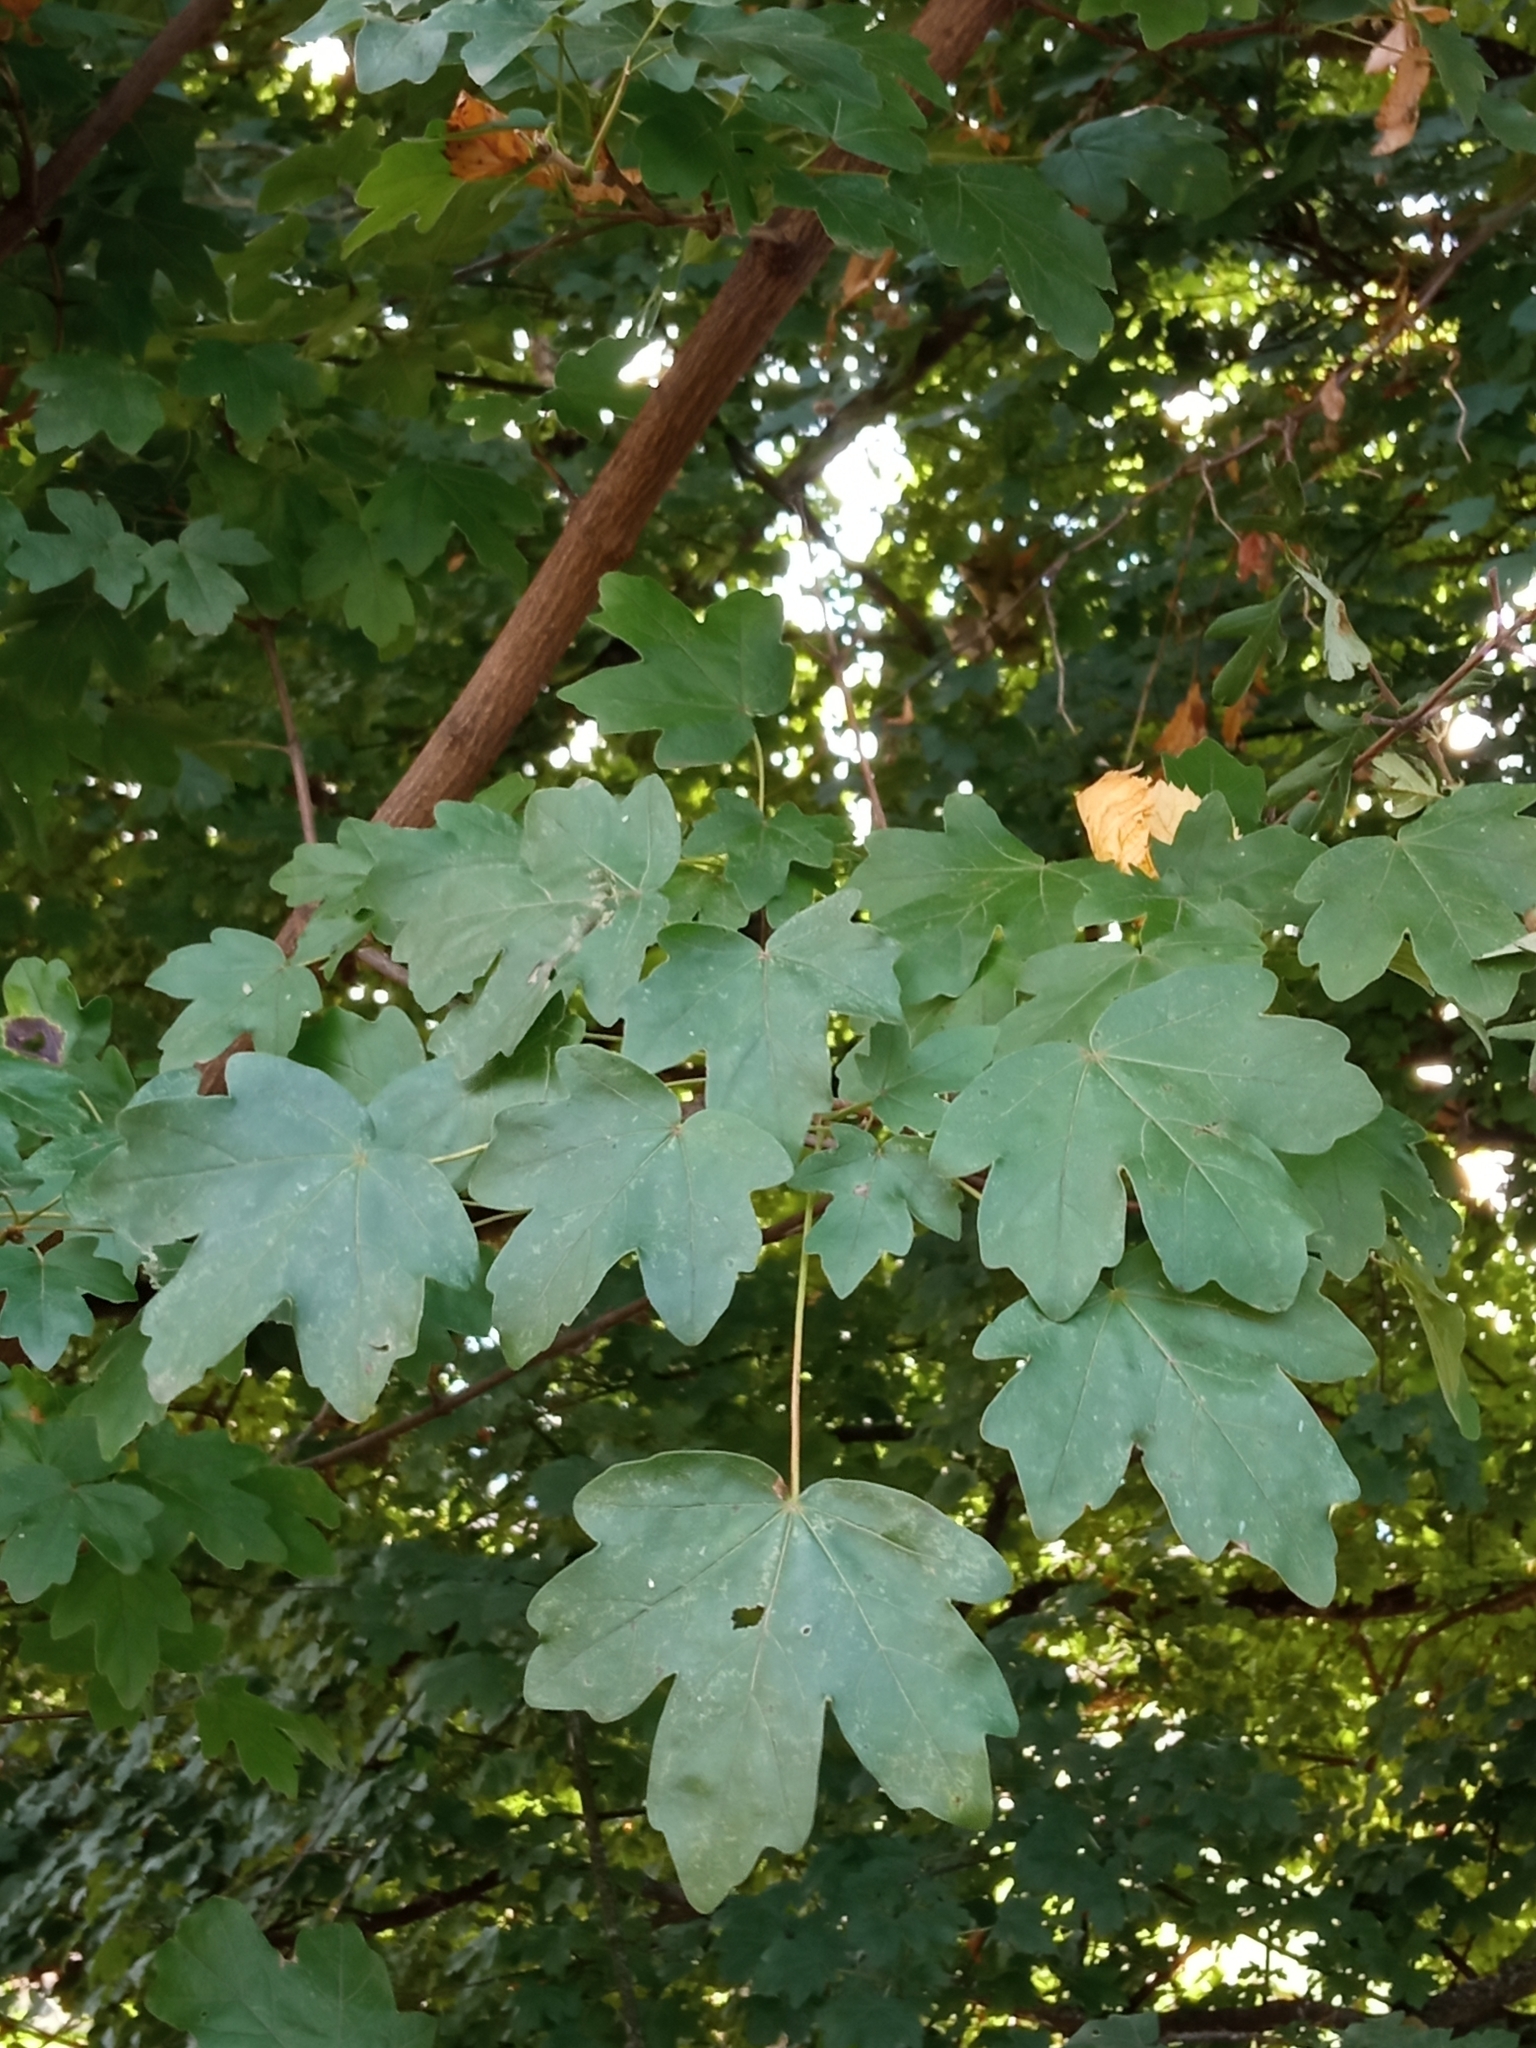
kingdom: Plantae
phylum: Tracheophyta
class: Magnoliopsida
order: Sapindales
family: Sapindaceae
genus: Acer
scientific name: Acer campestre
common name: Field maple
